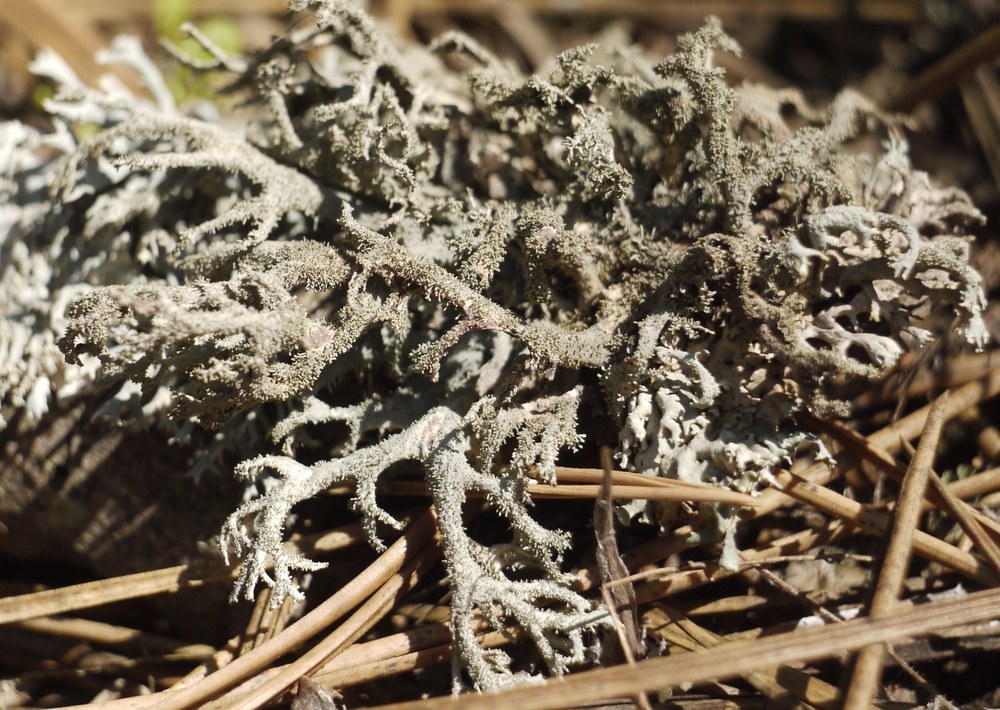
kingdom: Fungi
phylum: Ascomycota
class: Lecanoromycetes
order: Lecanorales
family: Parmeliaceae
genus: Pseudevernia
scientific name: Pseudevernia furfuracea
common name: Tree moss
